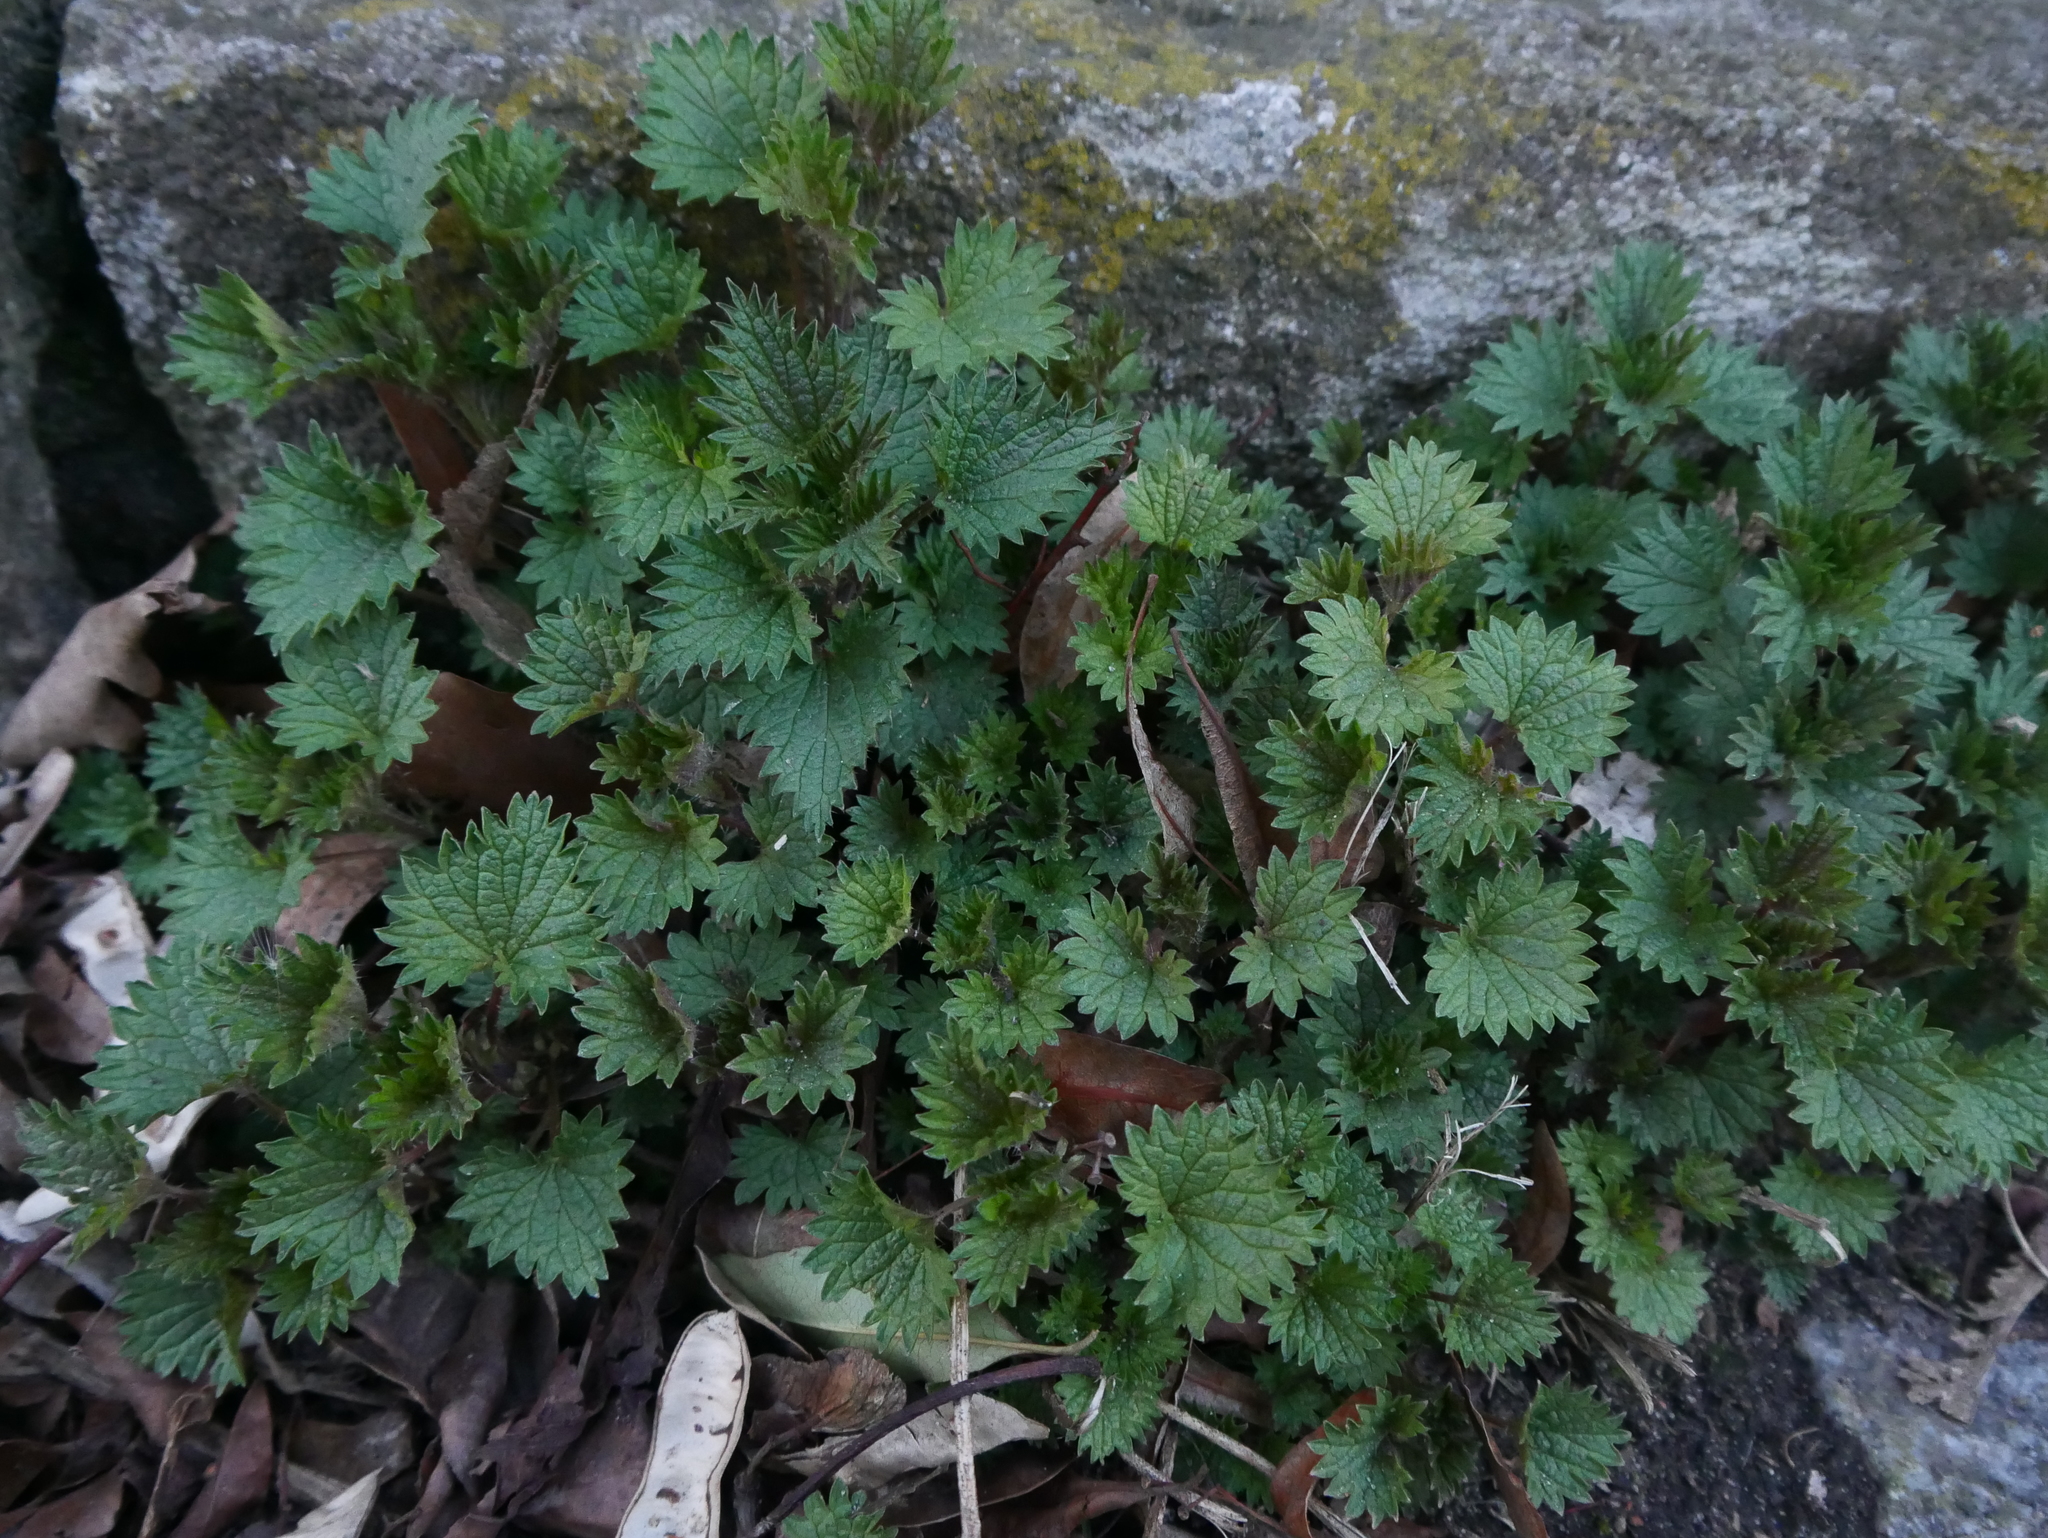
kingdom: Plantae
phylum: Tracheophyta
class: Magnoliopsida
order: Rosales
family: Urticaceae
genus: Urtica
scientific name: Urtica dioica
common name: Common nettle
